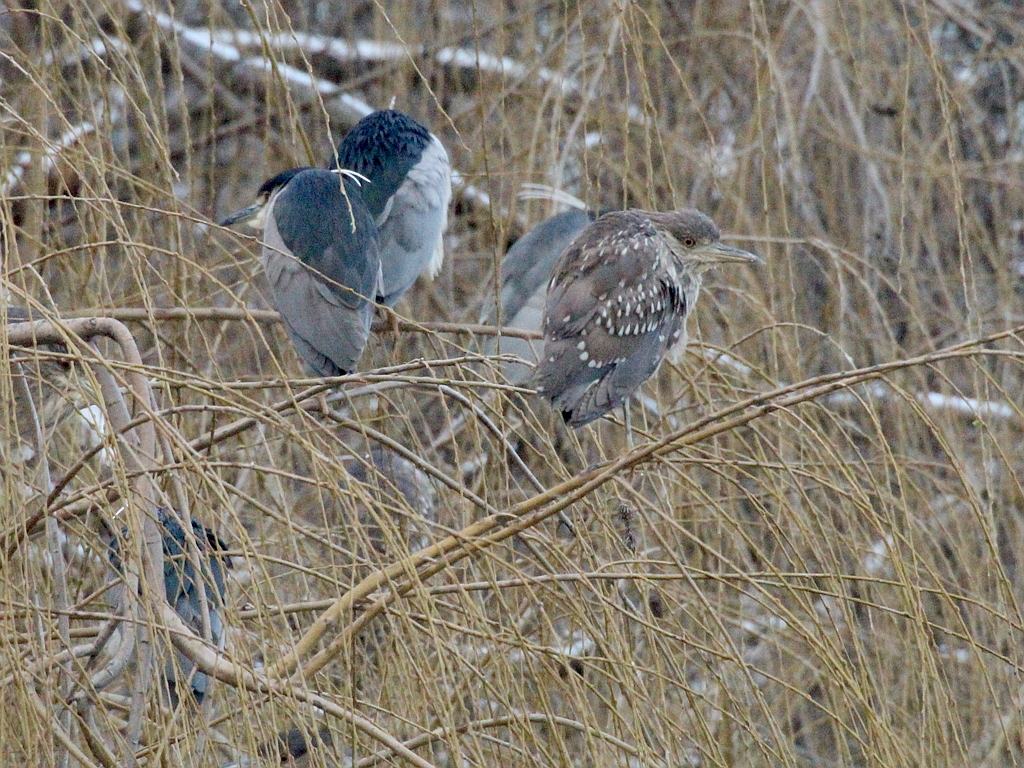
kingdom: Animalia
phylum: Chordata
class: Aves
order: Pelecaniformes
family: Ardeidae
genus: Nycticorax
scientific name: Nycticorax nycticorax
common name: Black-crowned night heron
